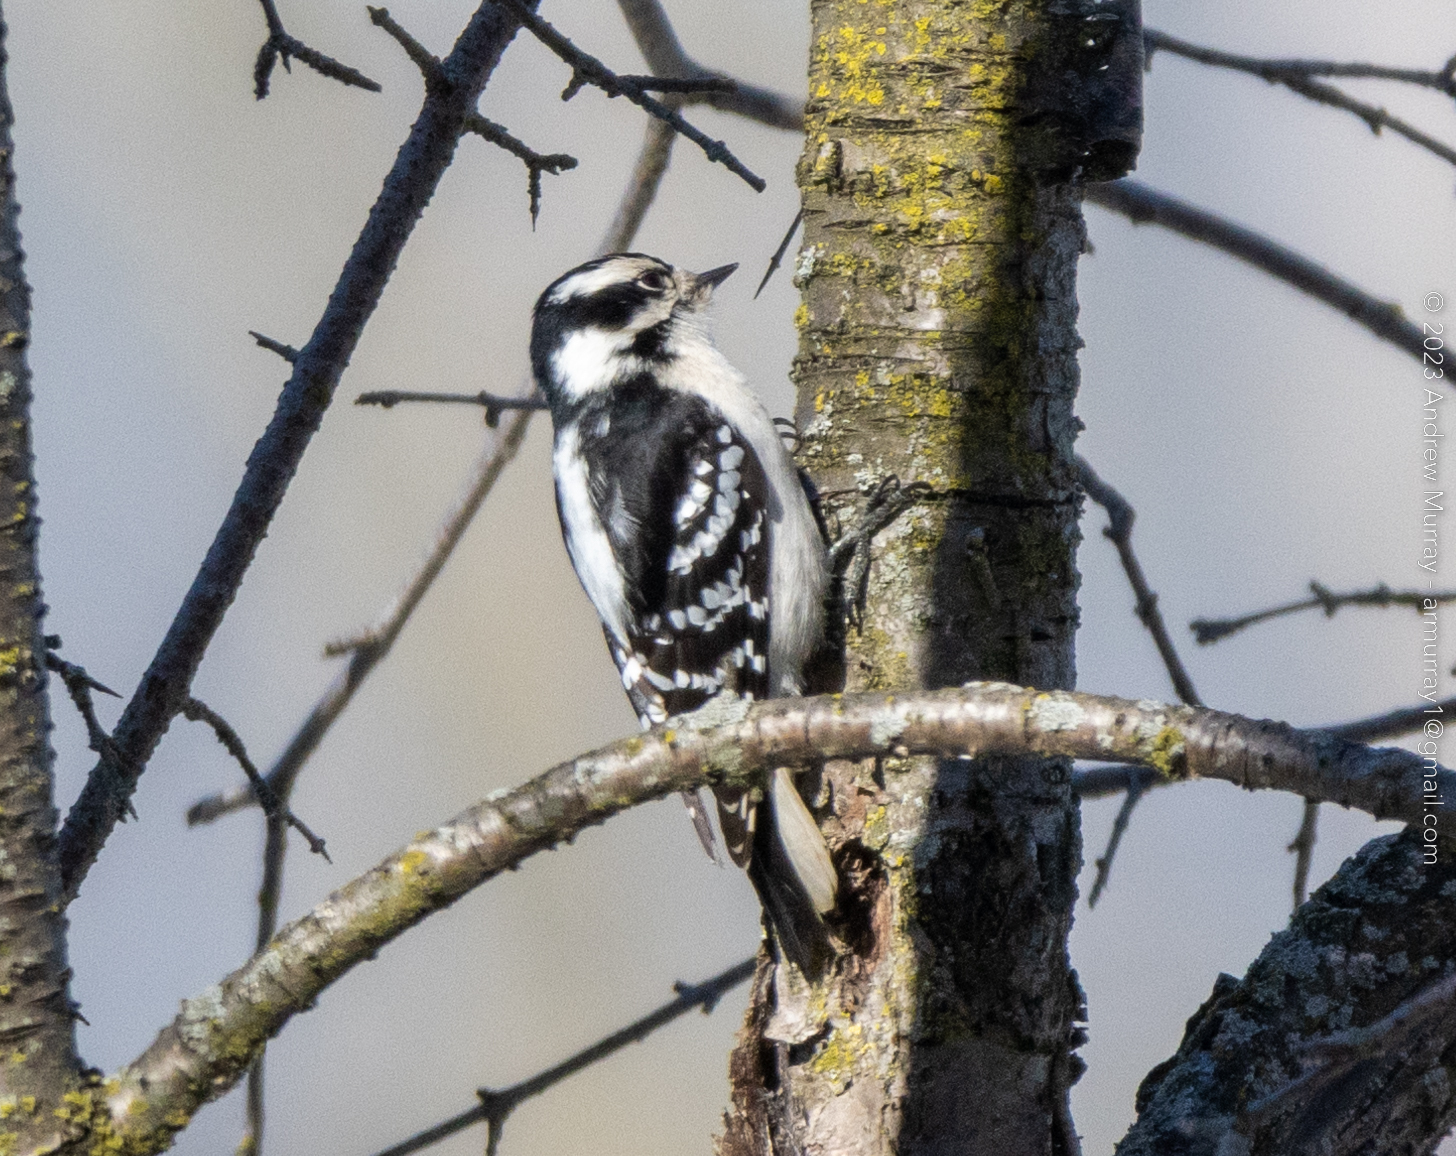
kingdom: Animalia
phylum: Chordata
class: Aves
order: Piciformes
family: Picidae
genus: Dryobates
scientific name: Dryobates pubescens
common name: Downy woodpecker
